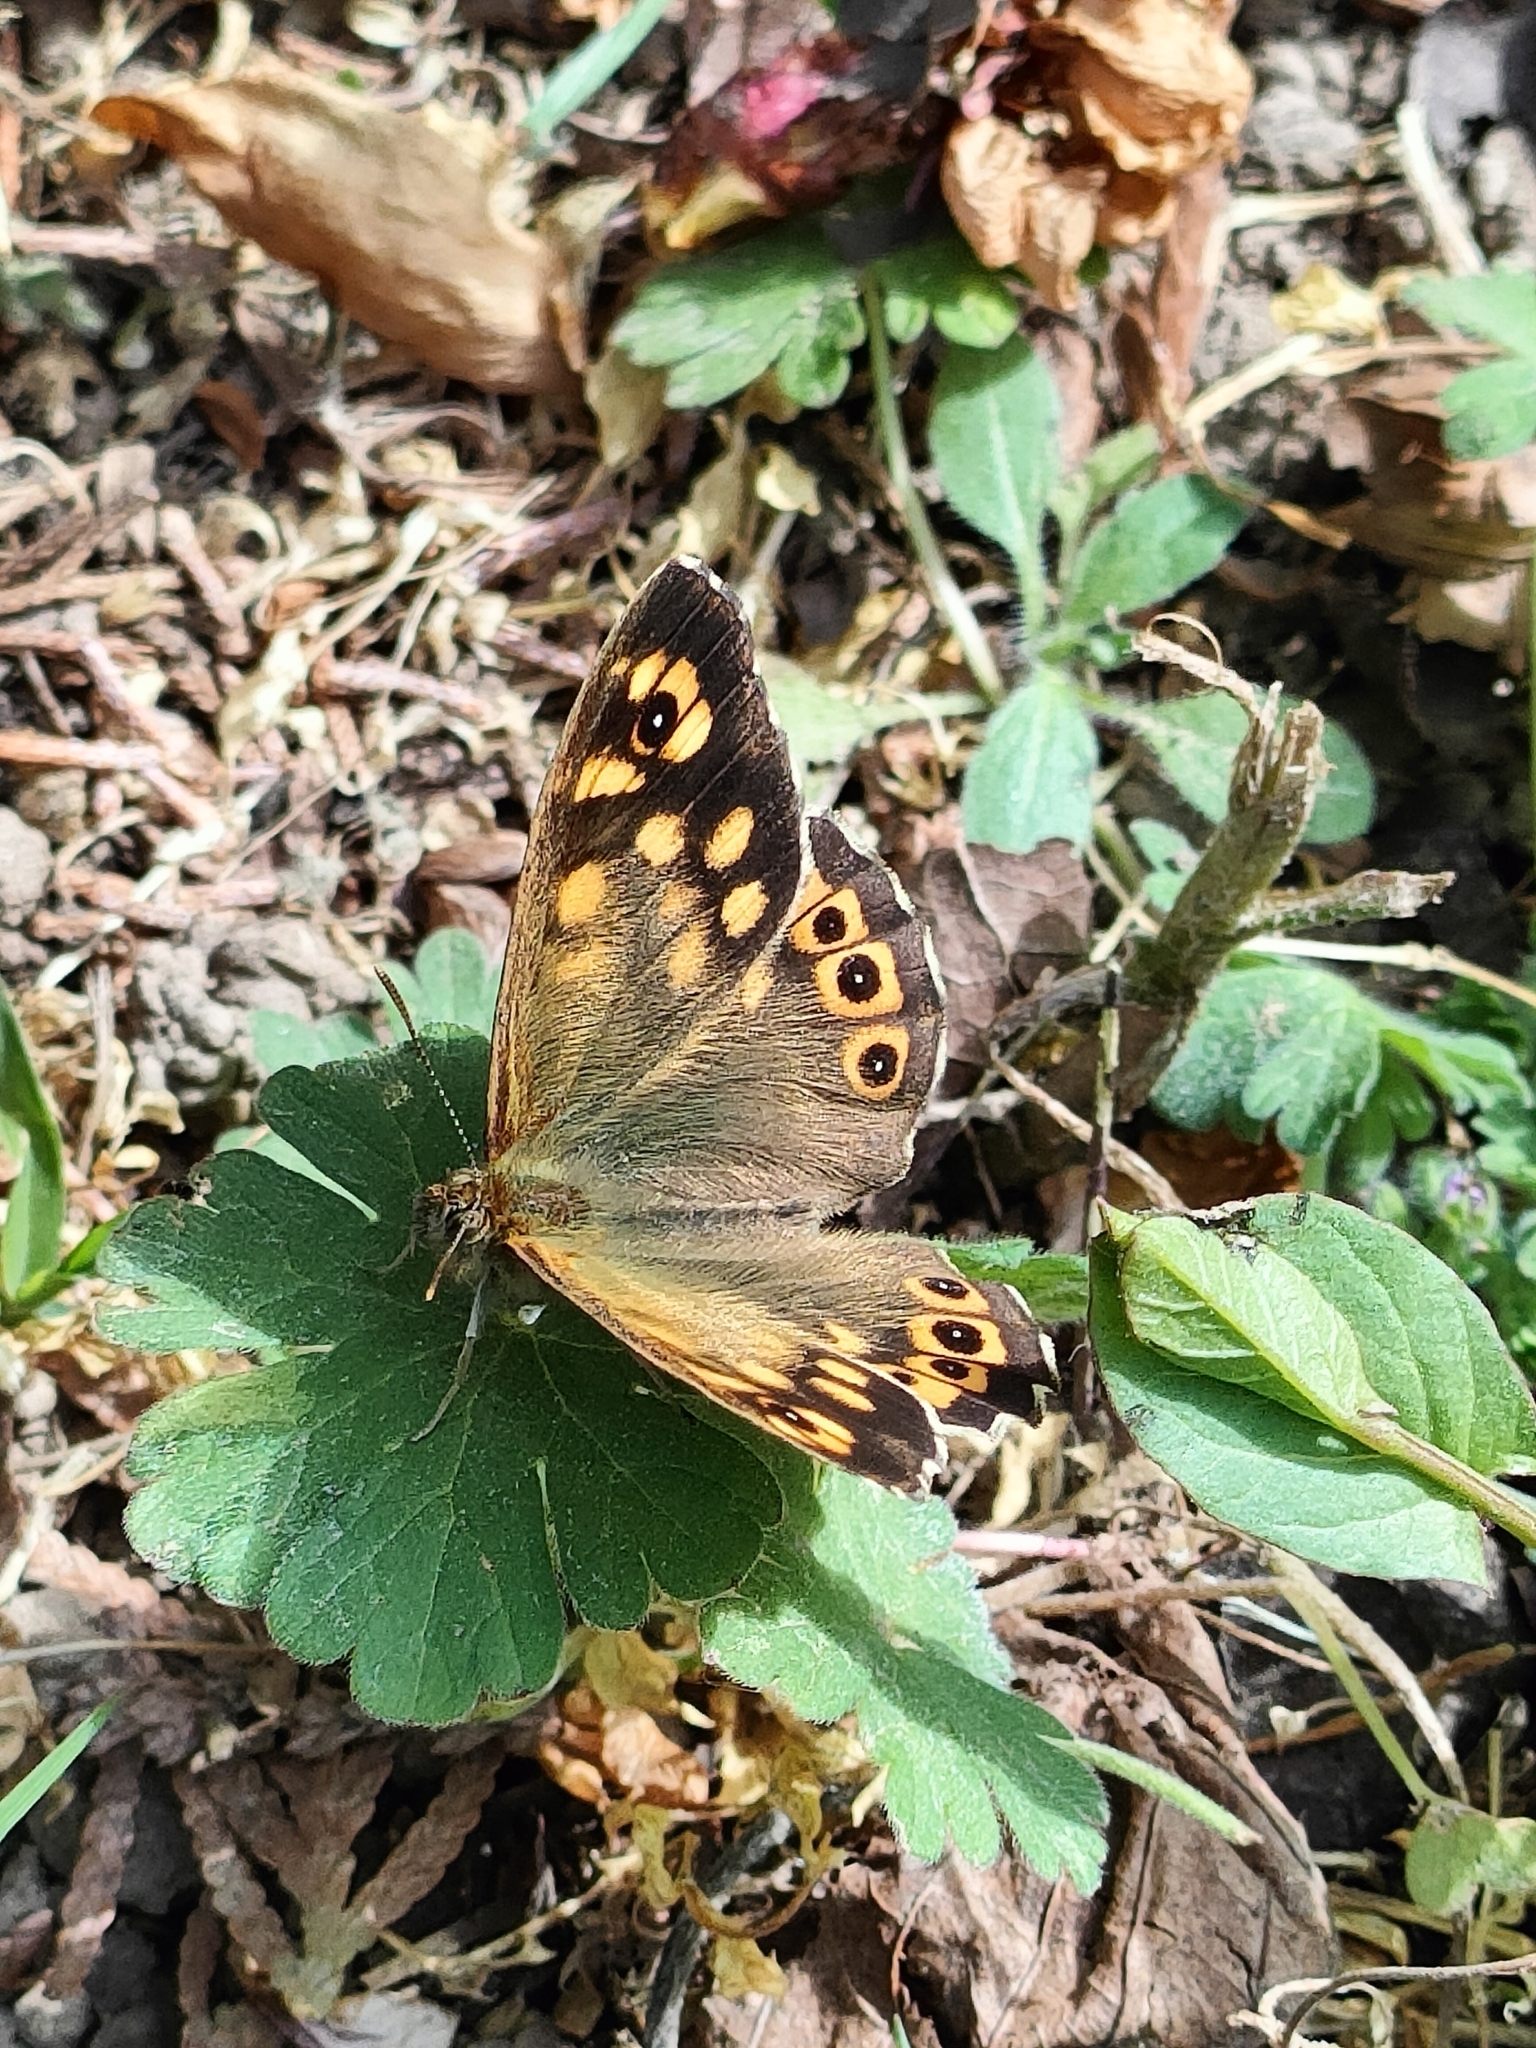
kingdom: Animalia
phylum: Arthropoda
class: Insecta
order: Lepidoptera
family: Nymphalidae
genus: Pararge
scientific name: Pararge aegeria
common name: Speckled wood
